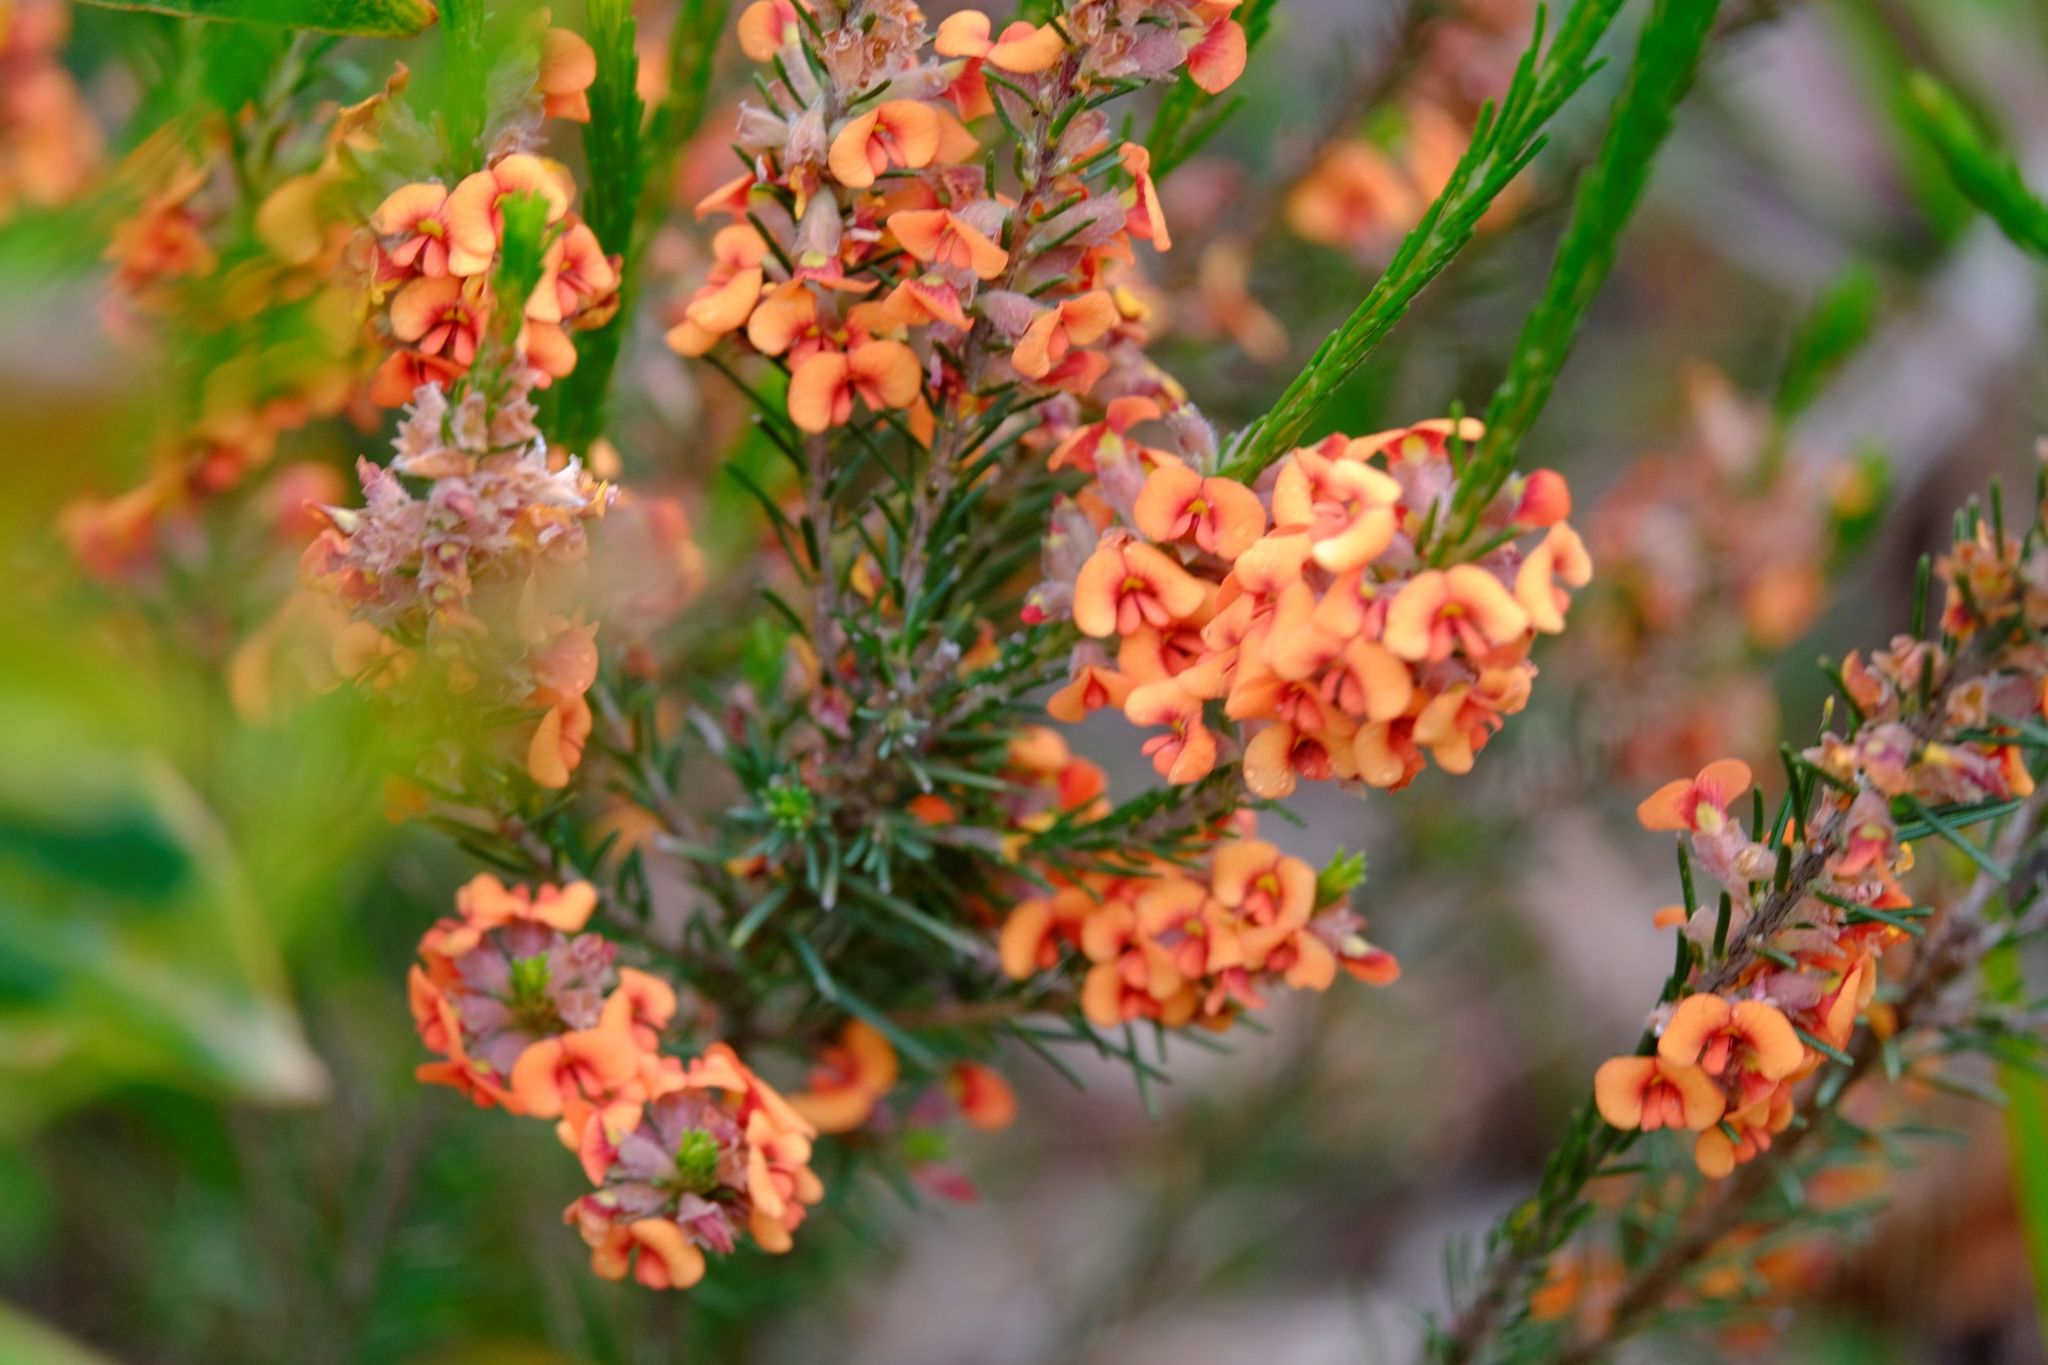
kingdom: Plantae
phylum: Tracheophyta
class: Magnoliopsida
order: Fabales
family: Fabaceae
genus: Dillwynia
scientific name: Dillwynia sericea
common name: Showy parrot-pea
